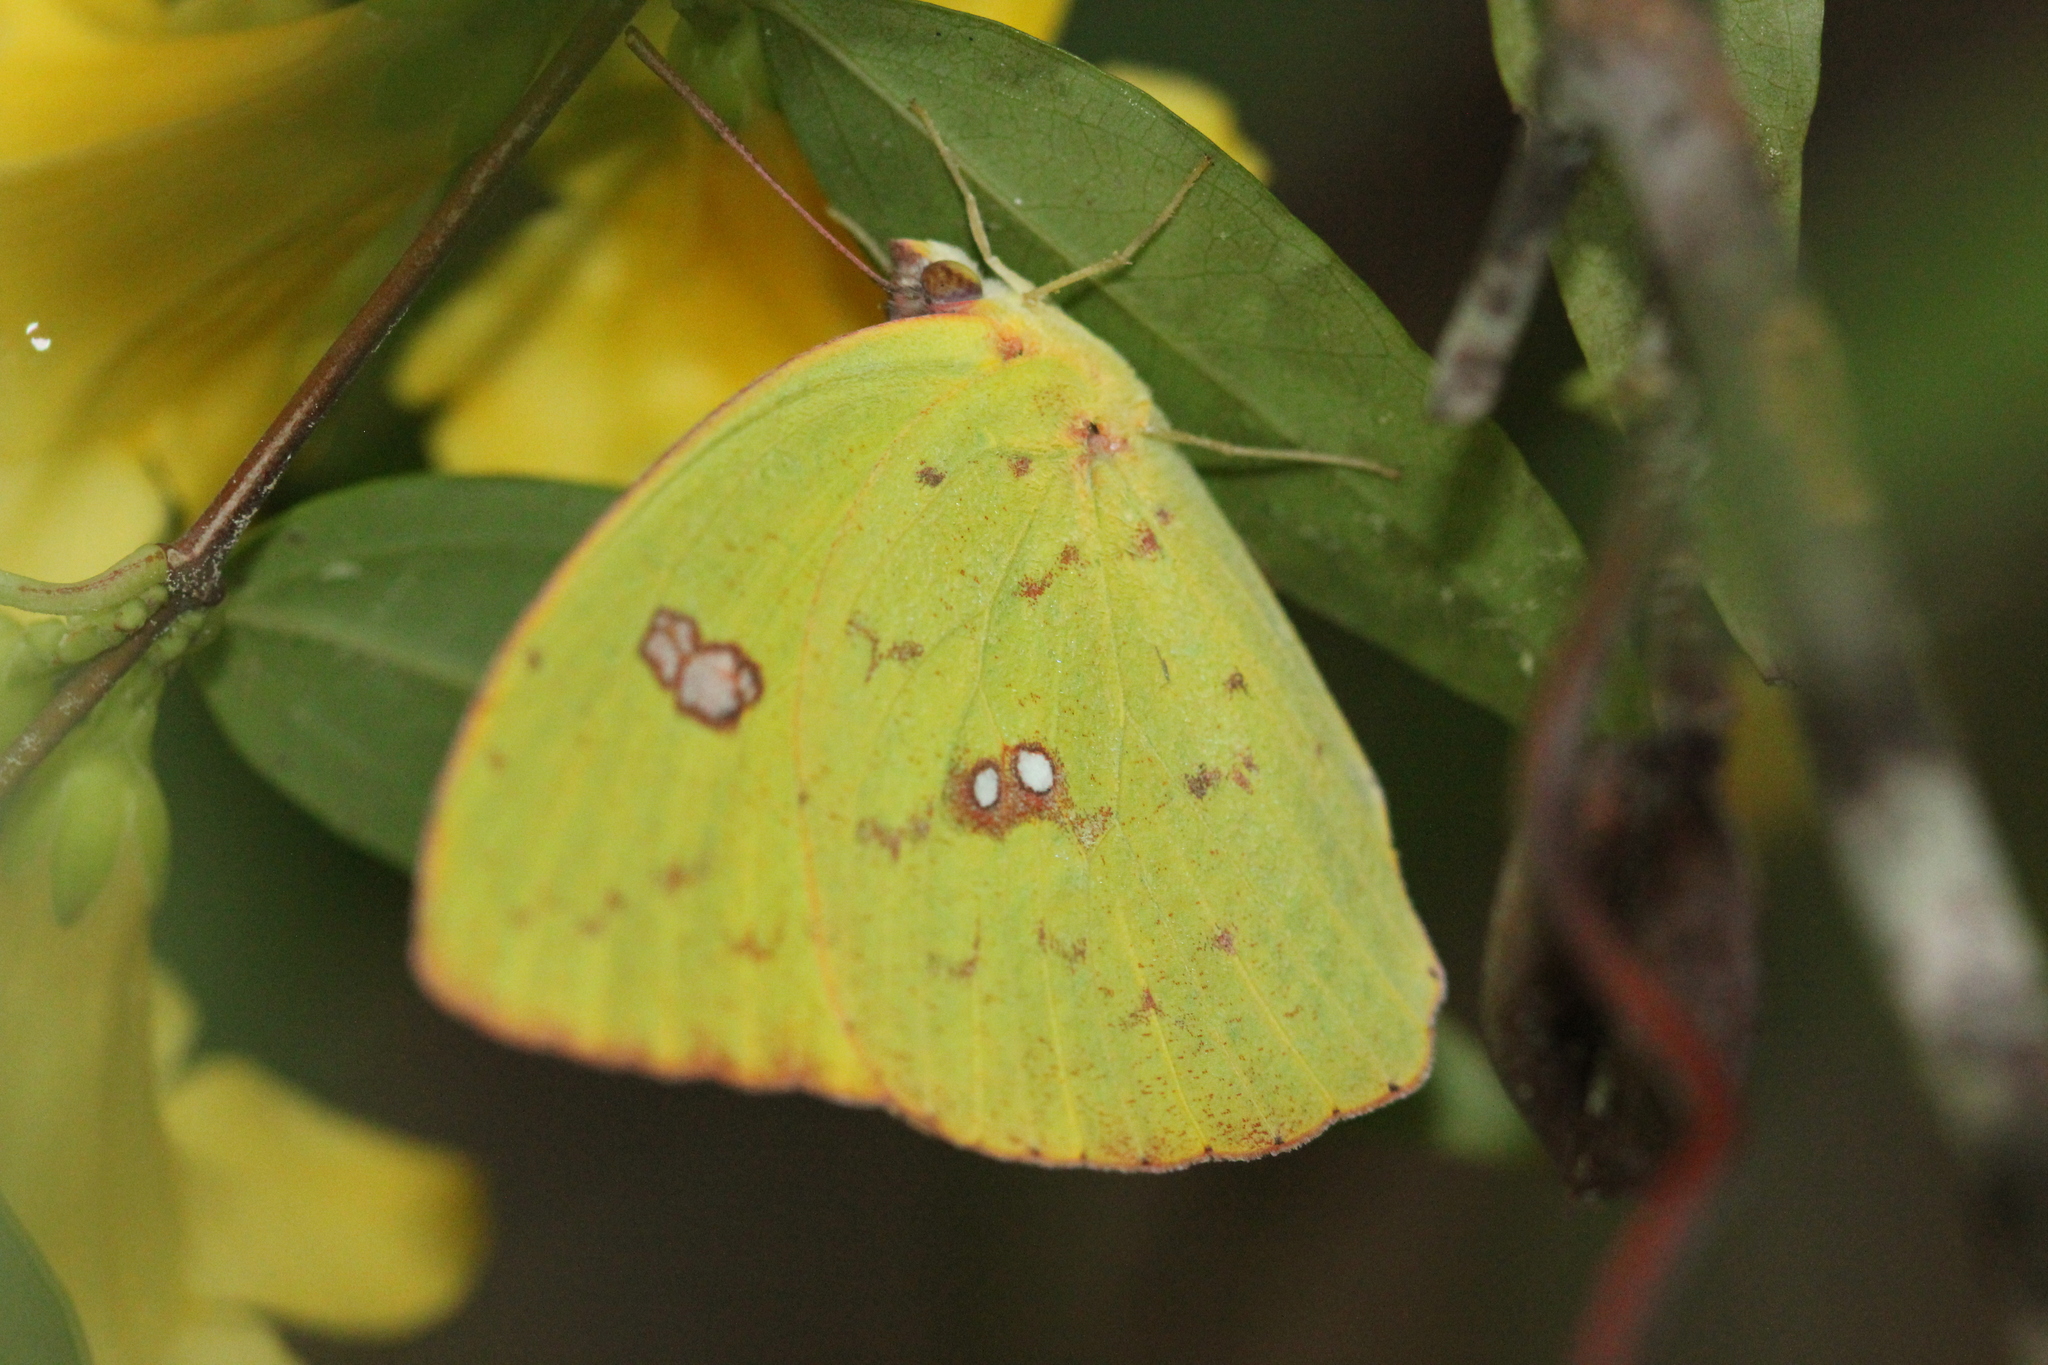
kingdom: Animalia
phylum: Arthropoda
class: Insecta
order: Lepidoptera
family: Pieridae
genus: Phoebis
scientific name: Phoebis sennae
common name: Cloudless sulphur
